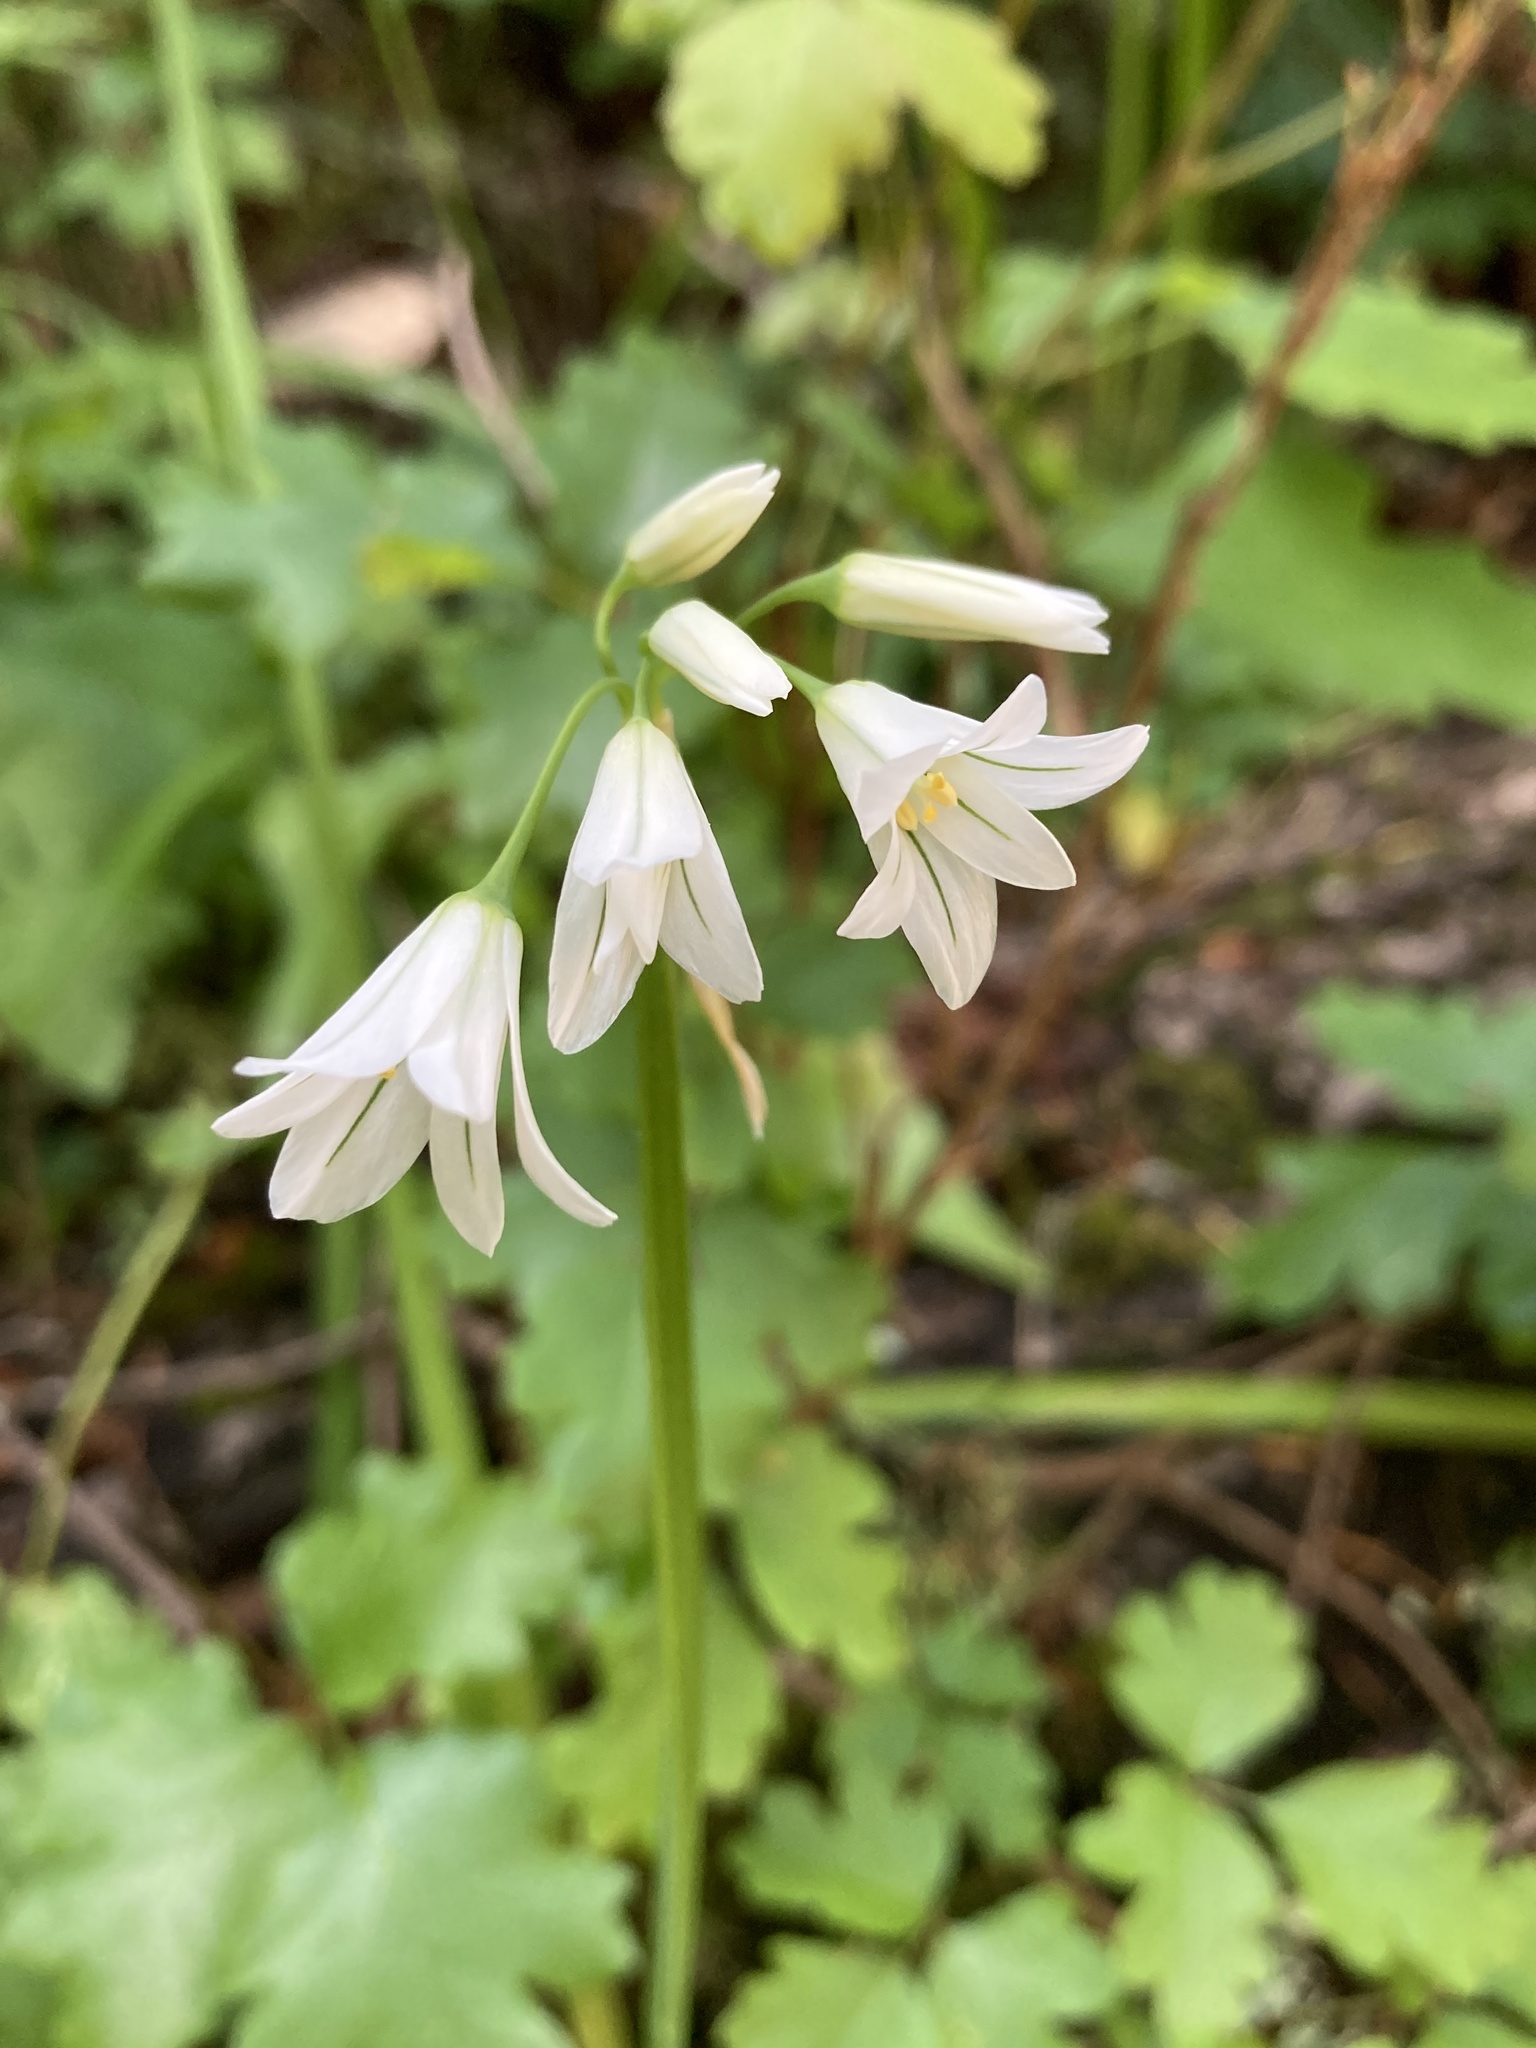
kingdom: Plantae
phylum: Tracheophyta
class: Liliopsida
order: Asparagales
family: Amaryllidaceae
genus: Allium
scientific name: Allium triquetrum
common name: Three-cornered garlic
